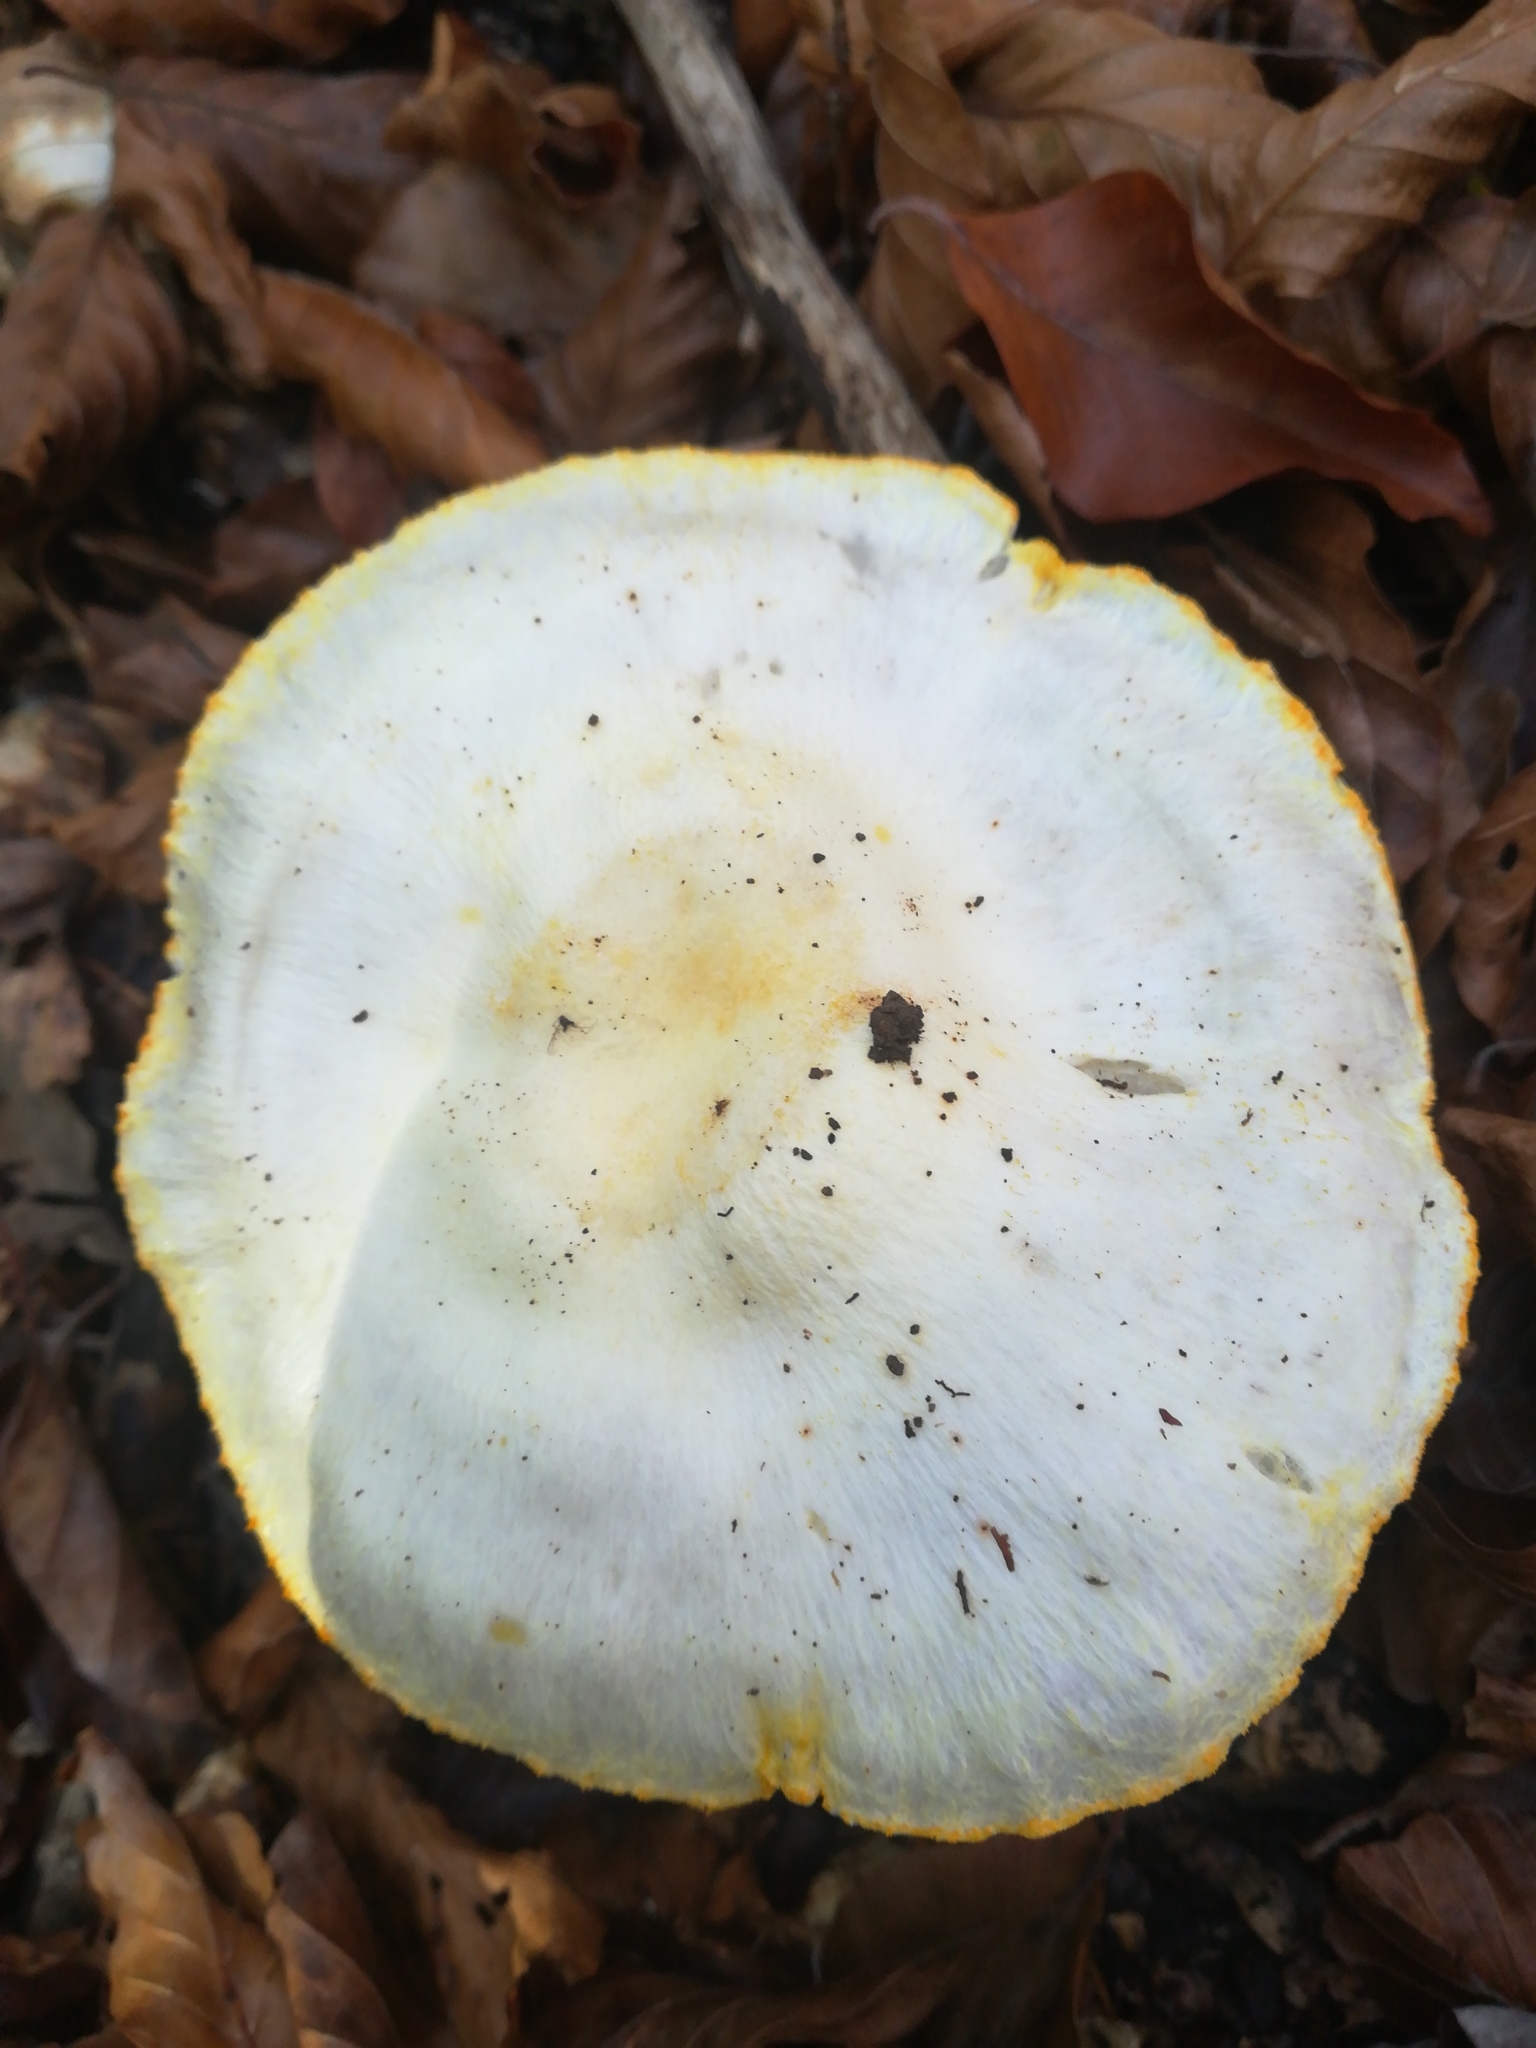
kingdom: Fungi
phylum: Basidiomycota
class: Agaricomycetes
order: Agaricales
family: Hygrophoraceae
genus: Hygrophorus
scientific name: Hygrophorus chrysodon
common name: Gold flecked woodwax
